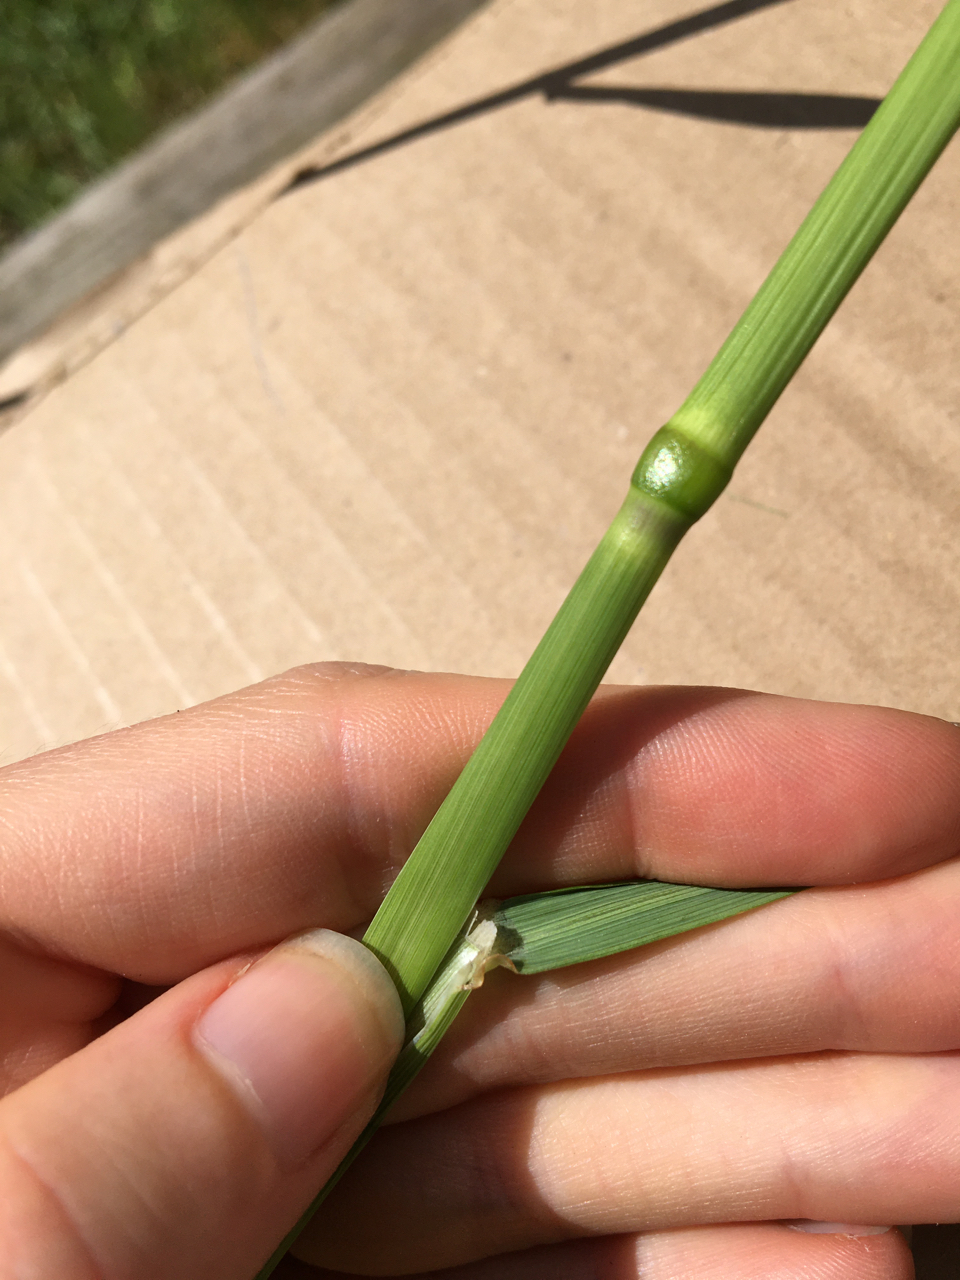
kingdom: Plantae
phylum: Tracheophyta
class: Liliopsida
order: Poales
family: Poaceae
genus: Arrhenatherum
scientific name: Arrhenatherum elatius
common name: Tall oatgrass
